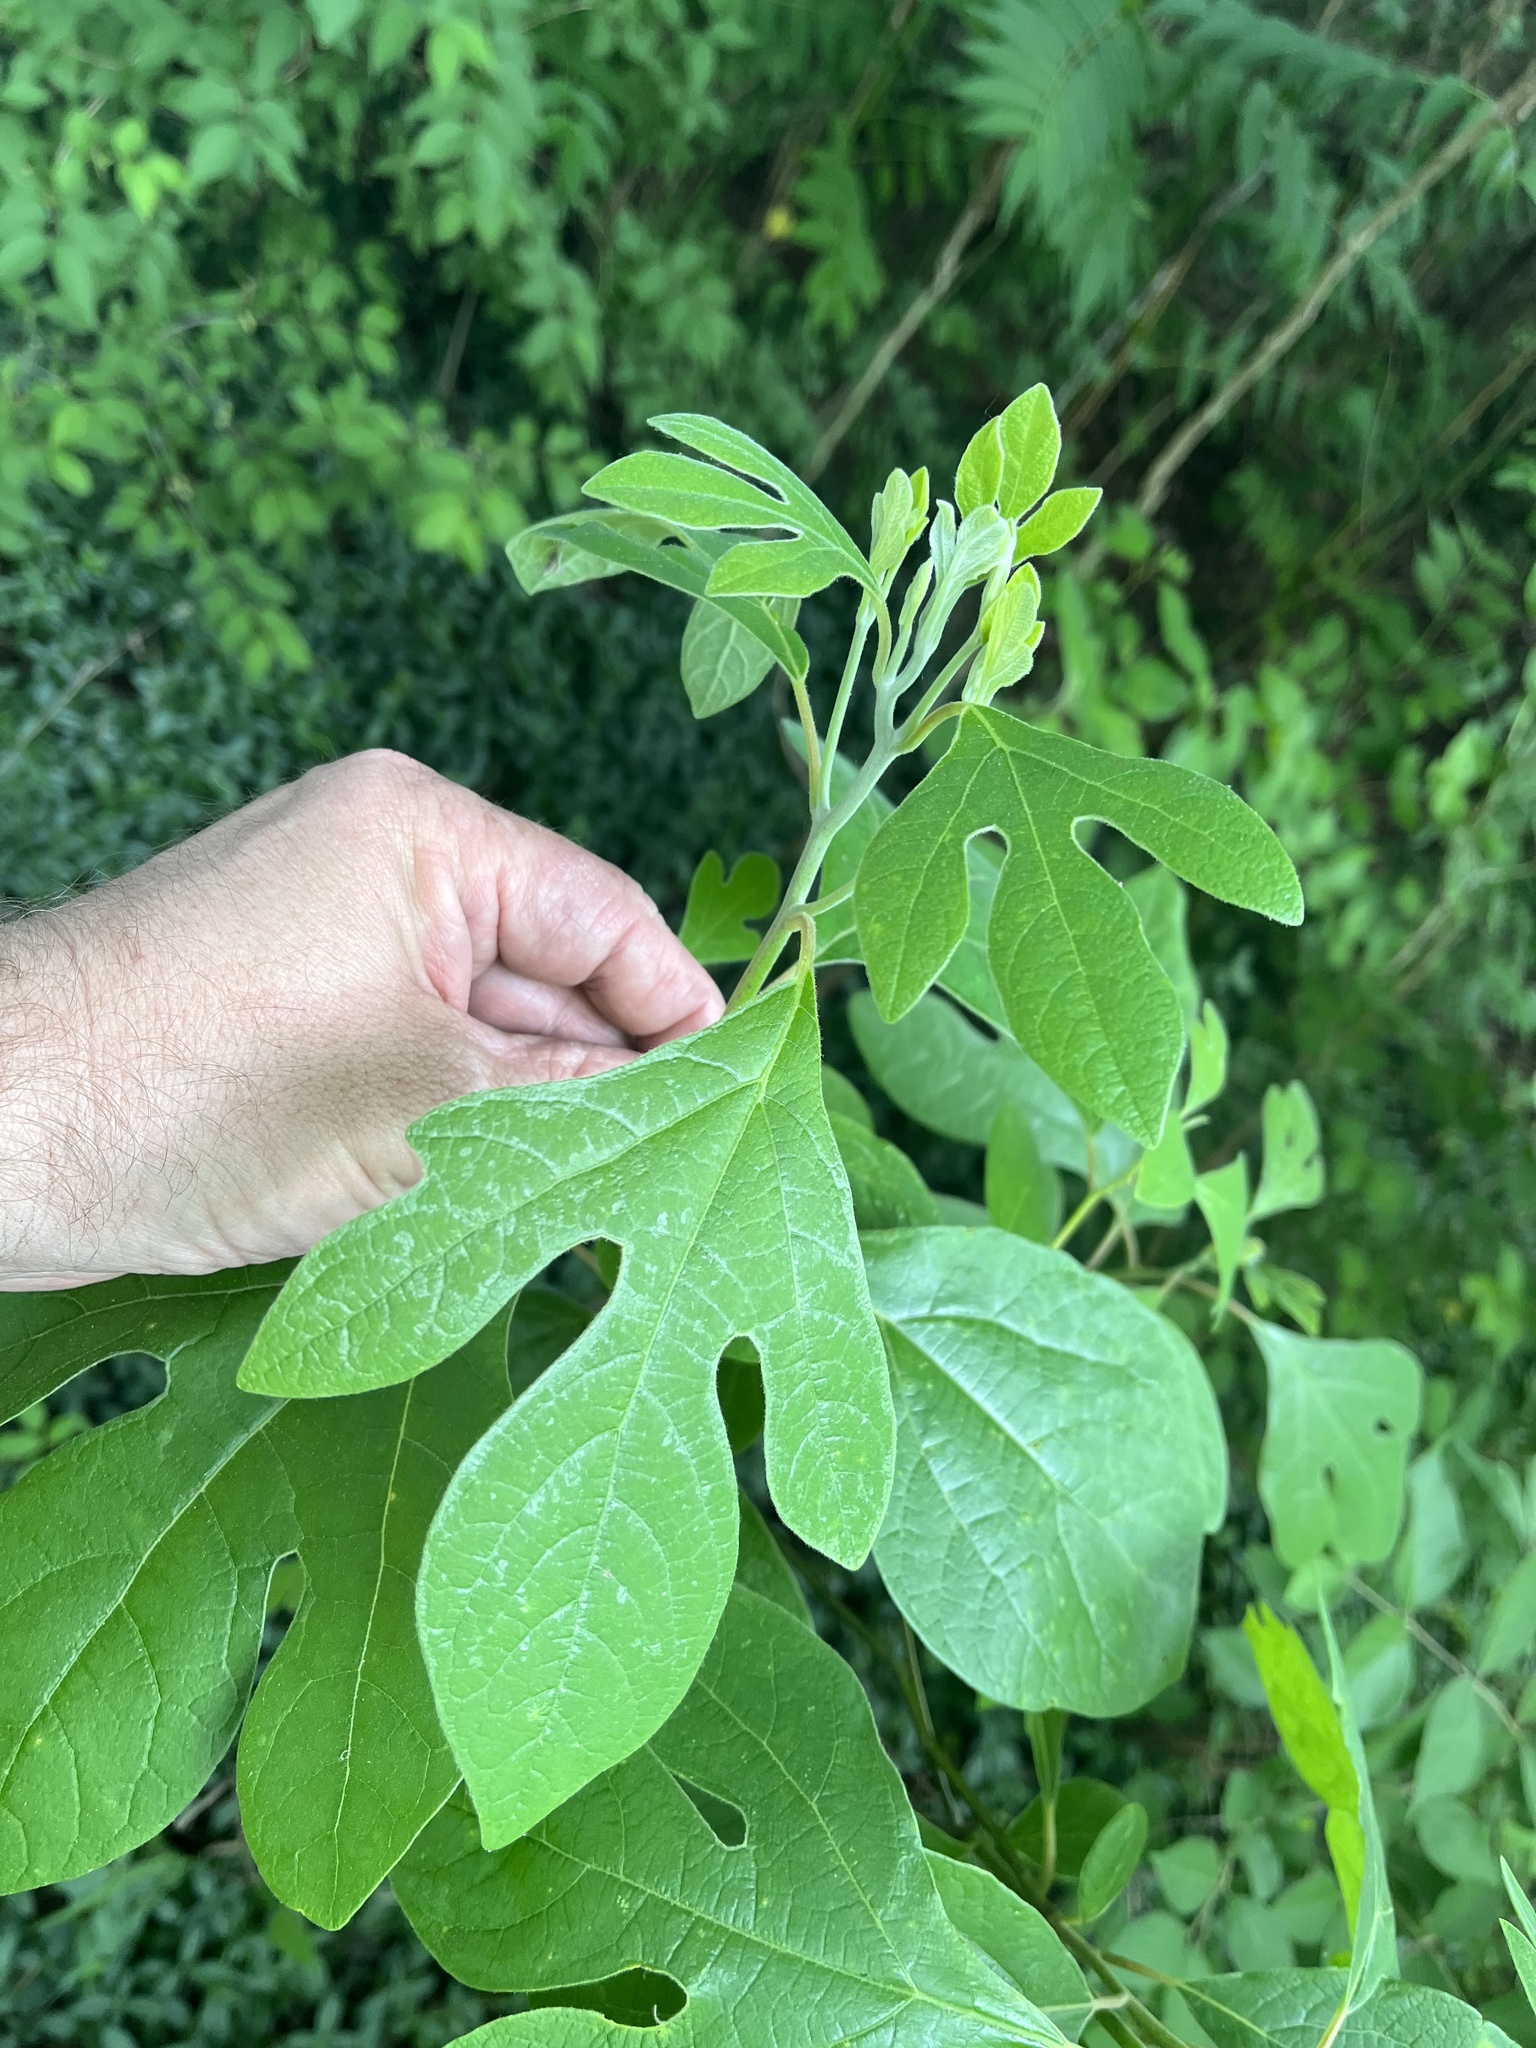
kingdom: Plantae
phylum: Tracheophyta
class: Magnoliopsida
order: Laurales
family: Lauraceae
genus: Sassafras
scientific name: Sassafras albidum
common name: Sassafras
